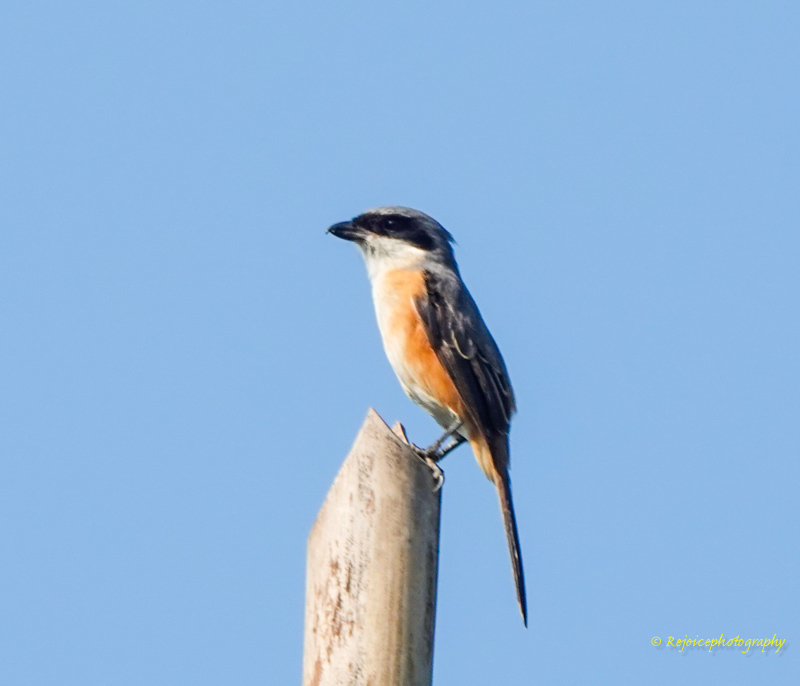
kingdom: Animalia
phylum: Chordata
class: Aves
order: Passeriformes
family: Laniidae
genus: Lanius
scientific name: Lanius tephronotus
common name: Grey-backed shrike
